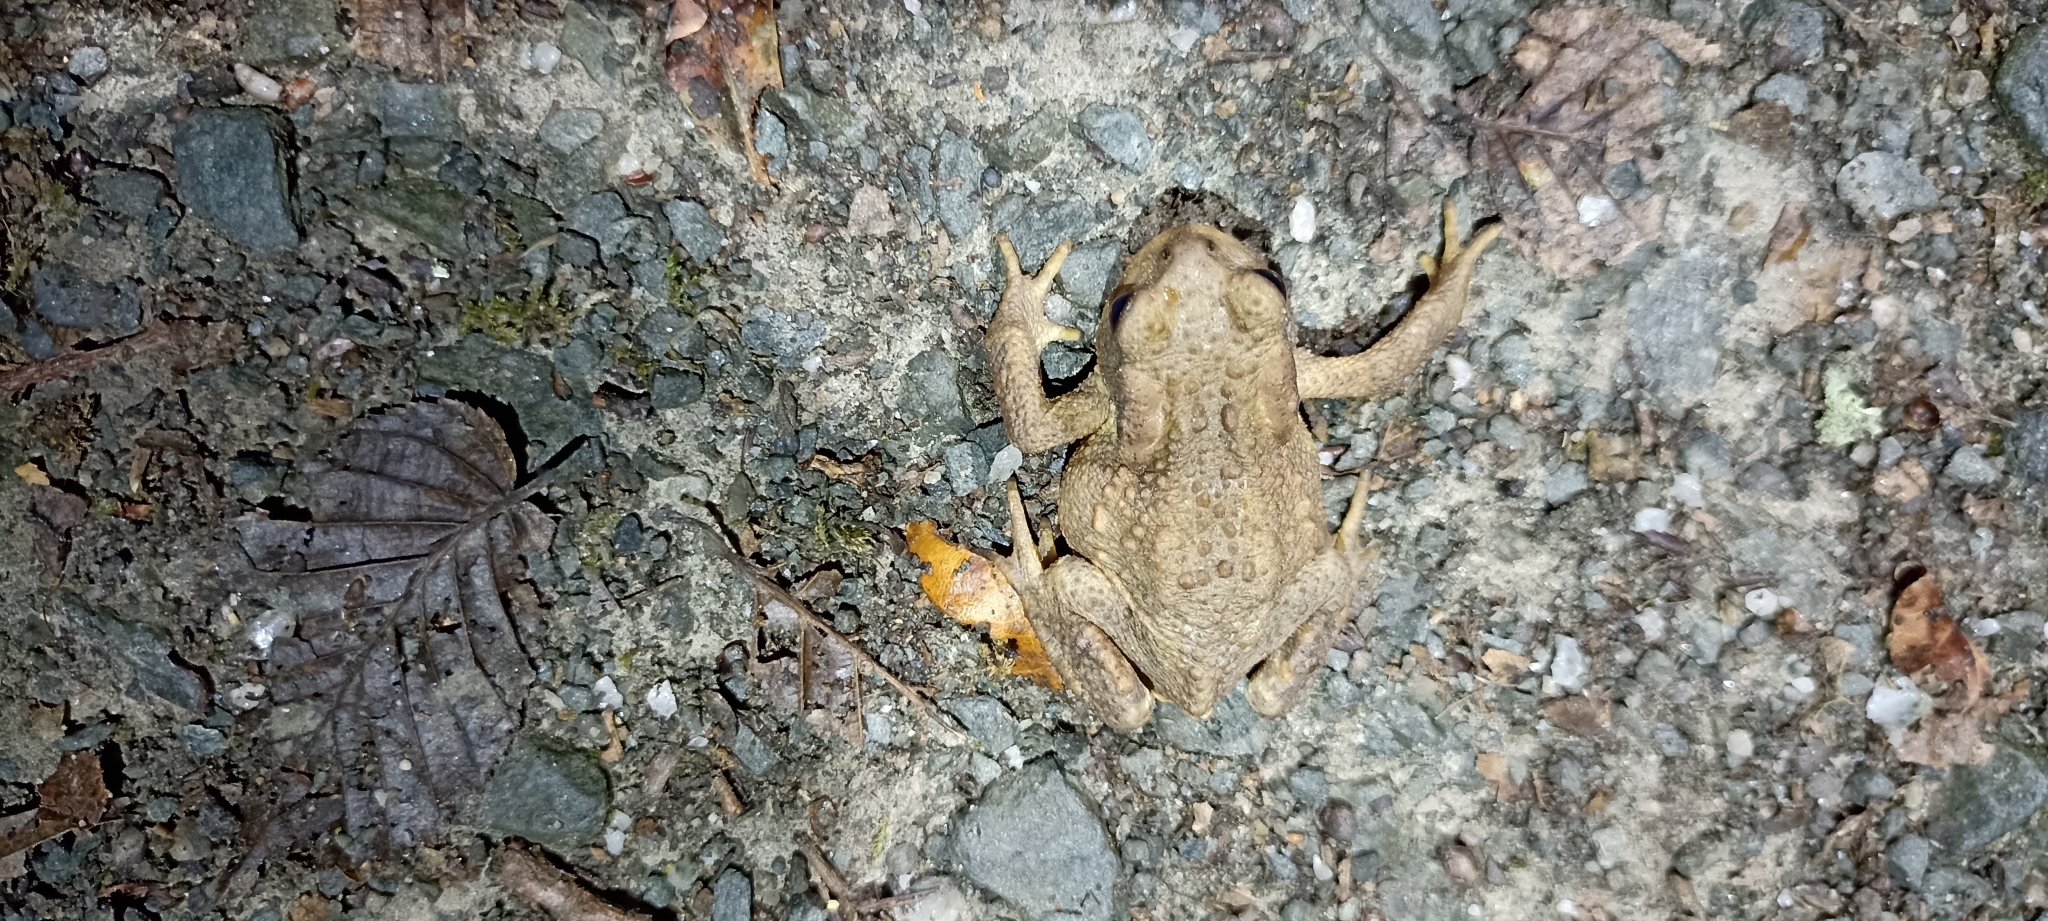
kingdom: Animalia
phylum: Chordata
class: Amphibia
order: Anura
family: Bufonidae
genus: Bufo
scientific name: Bufo spinosus
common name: Western common toad
